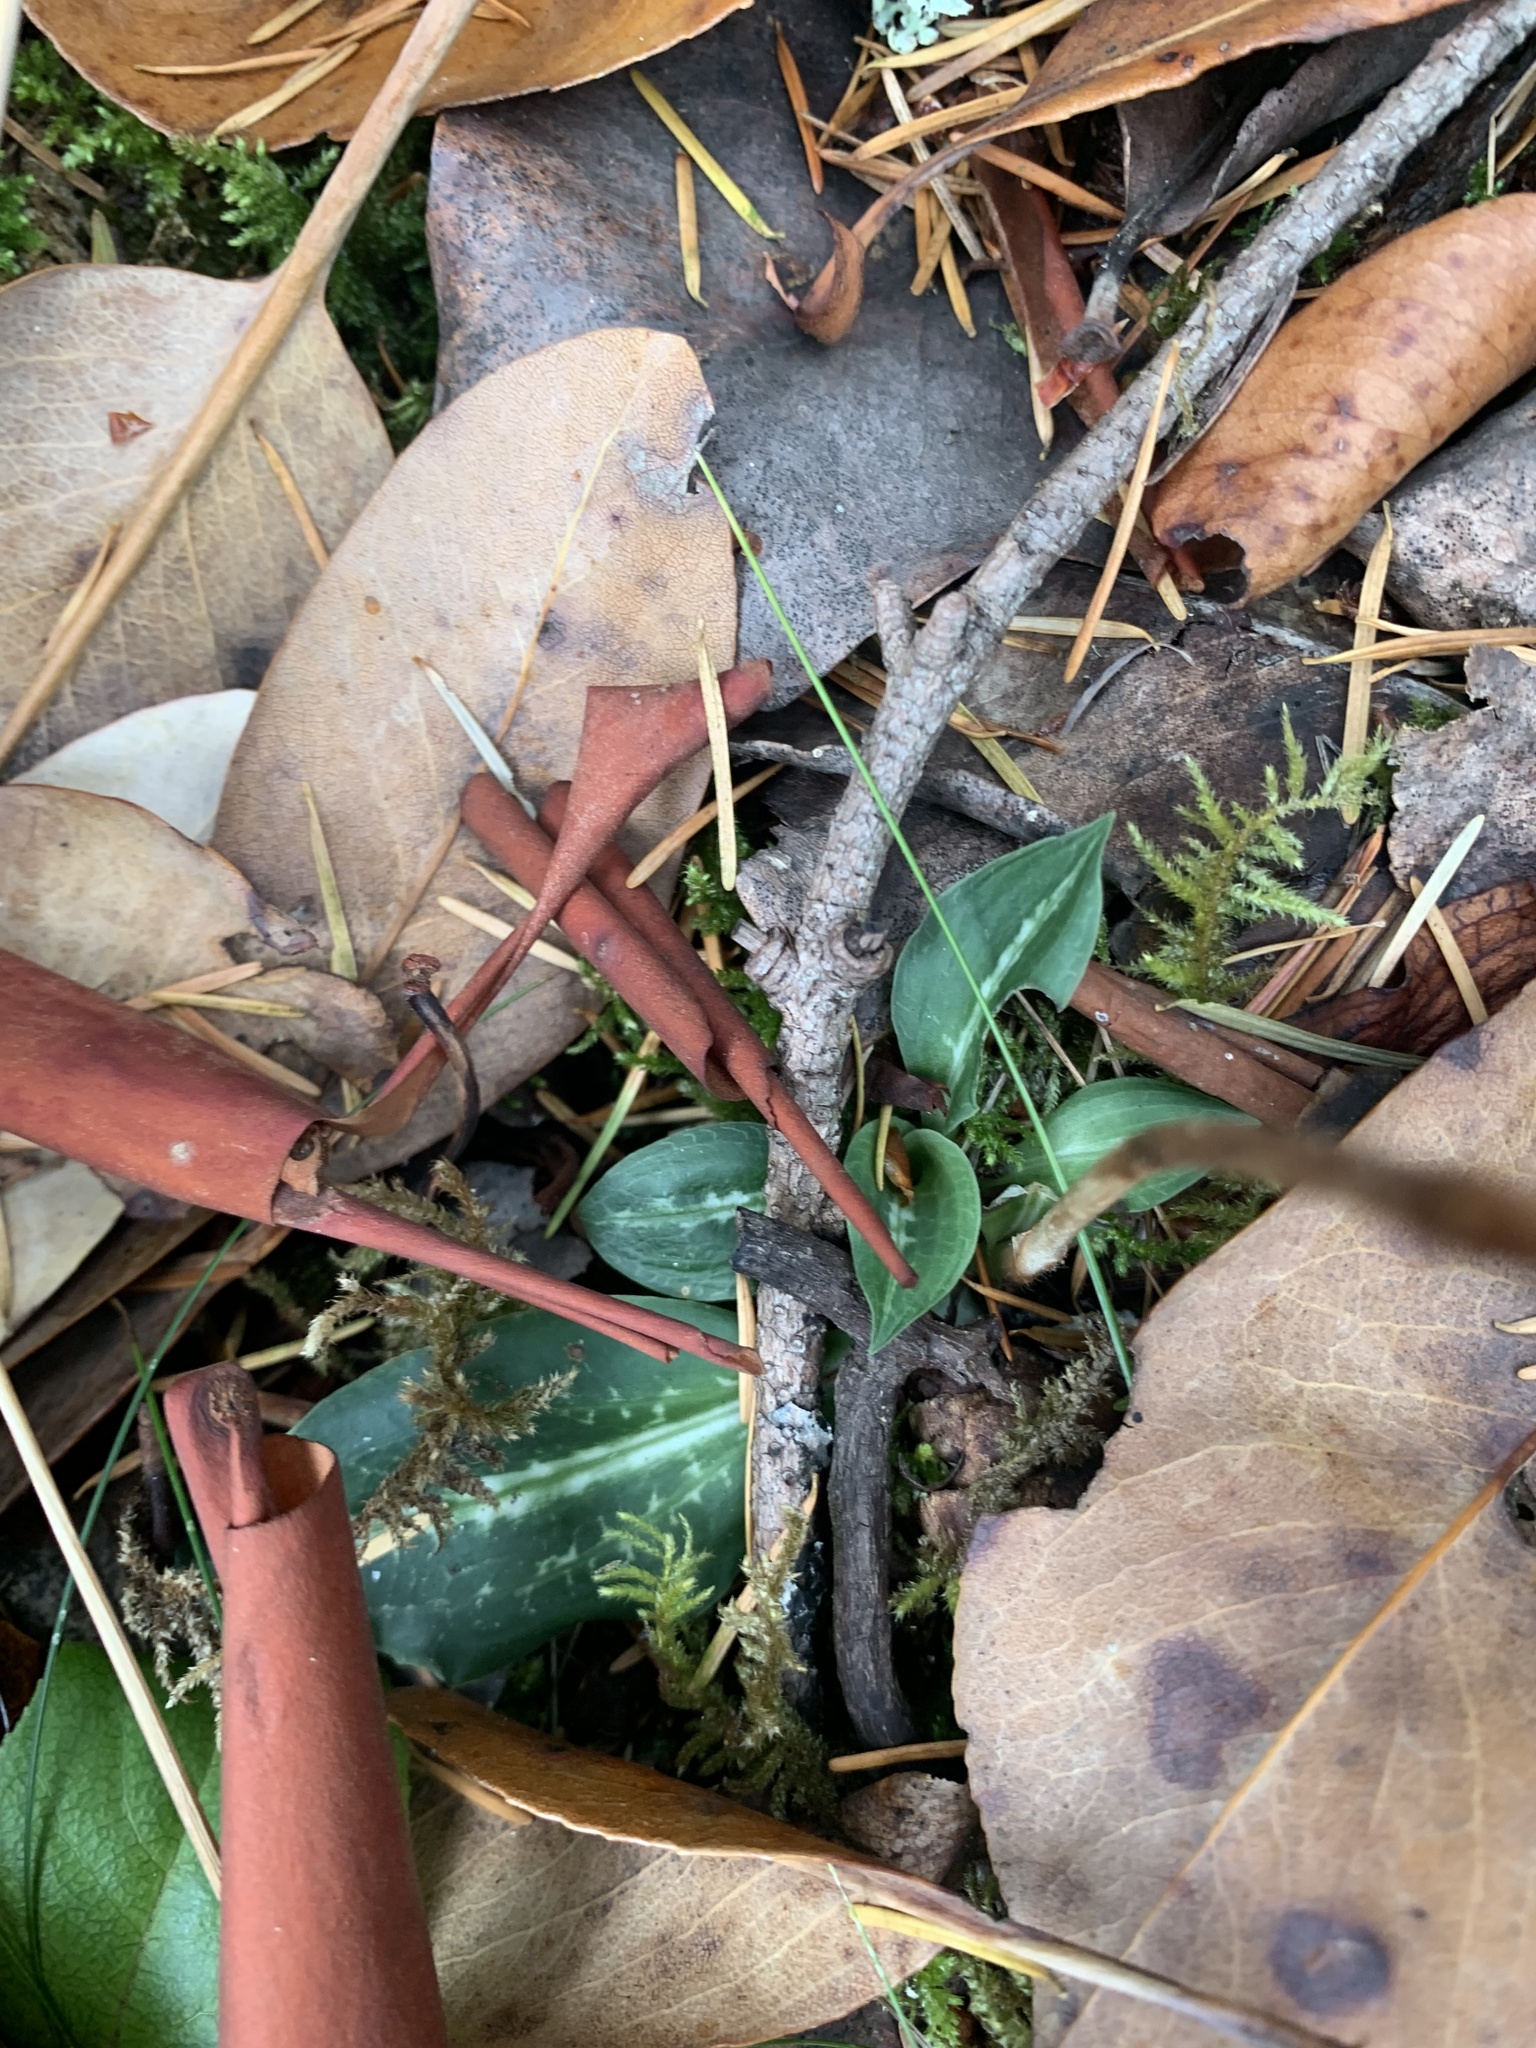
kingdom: Plantae
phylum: Tracheophyta
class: Liliopsida
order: Asparagales
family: Orchidaceae
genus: Goodyera
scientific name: Goodyera oblongifolia
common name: Giant rattlesnake-plantain
